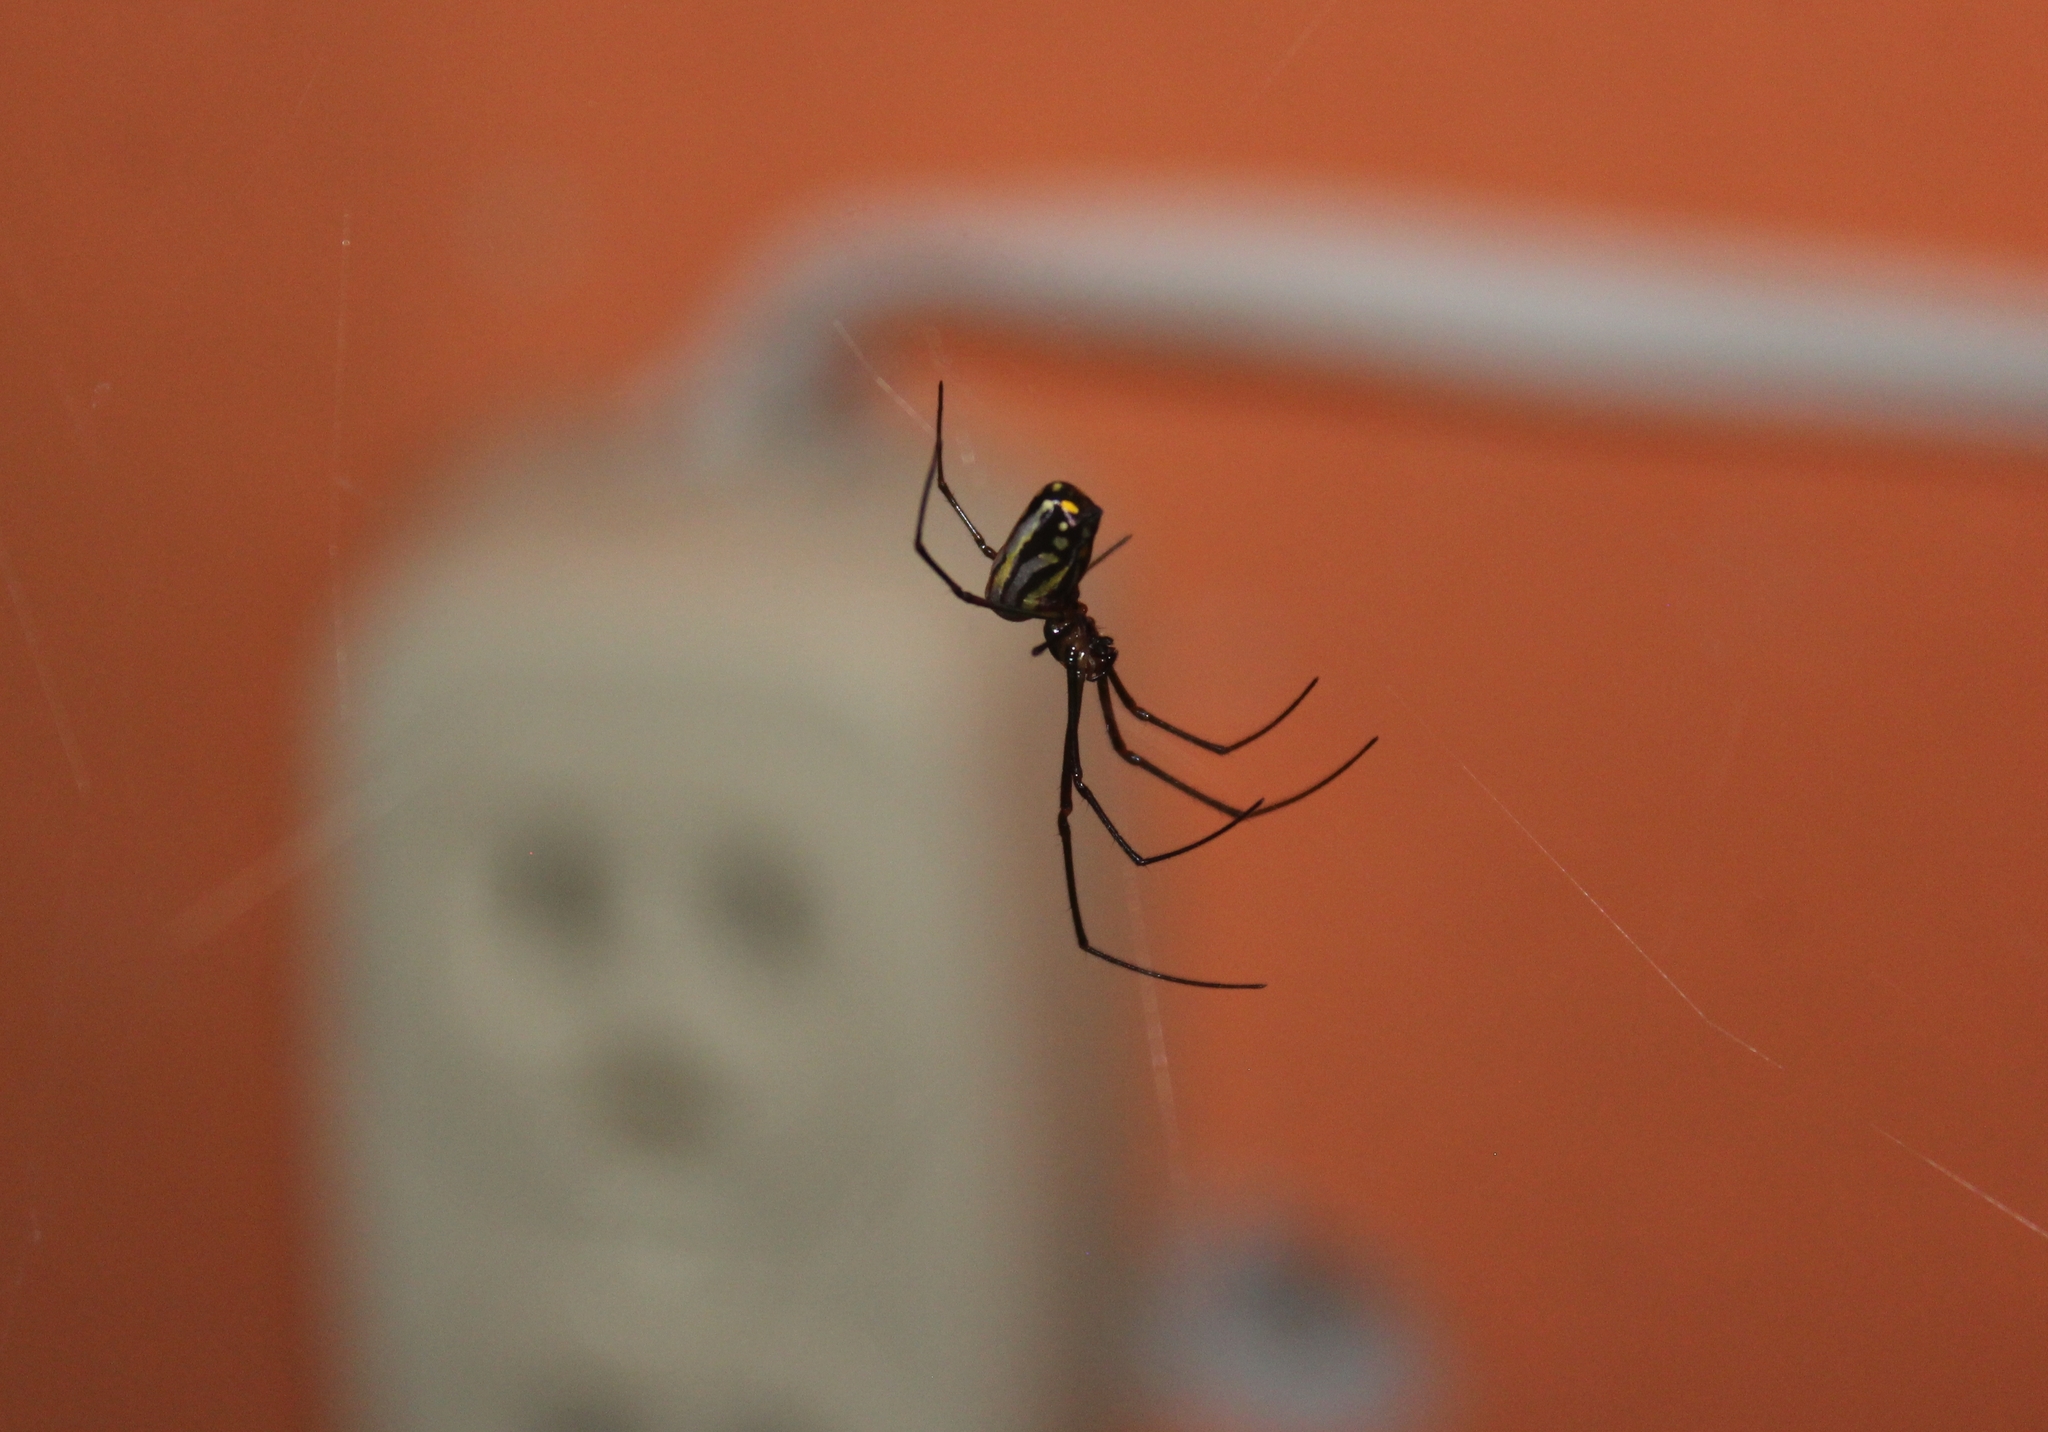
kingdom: Animalia
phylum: Arthropoda
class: Arachnida
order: Araneae
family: Tetragnathidae
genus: Leucauge
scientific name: Leucauge argyra
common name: Longjawed orb weavers
